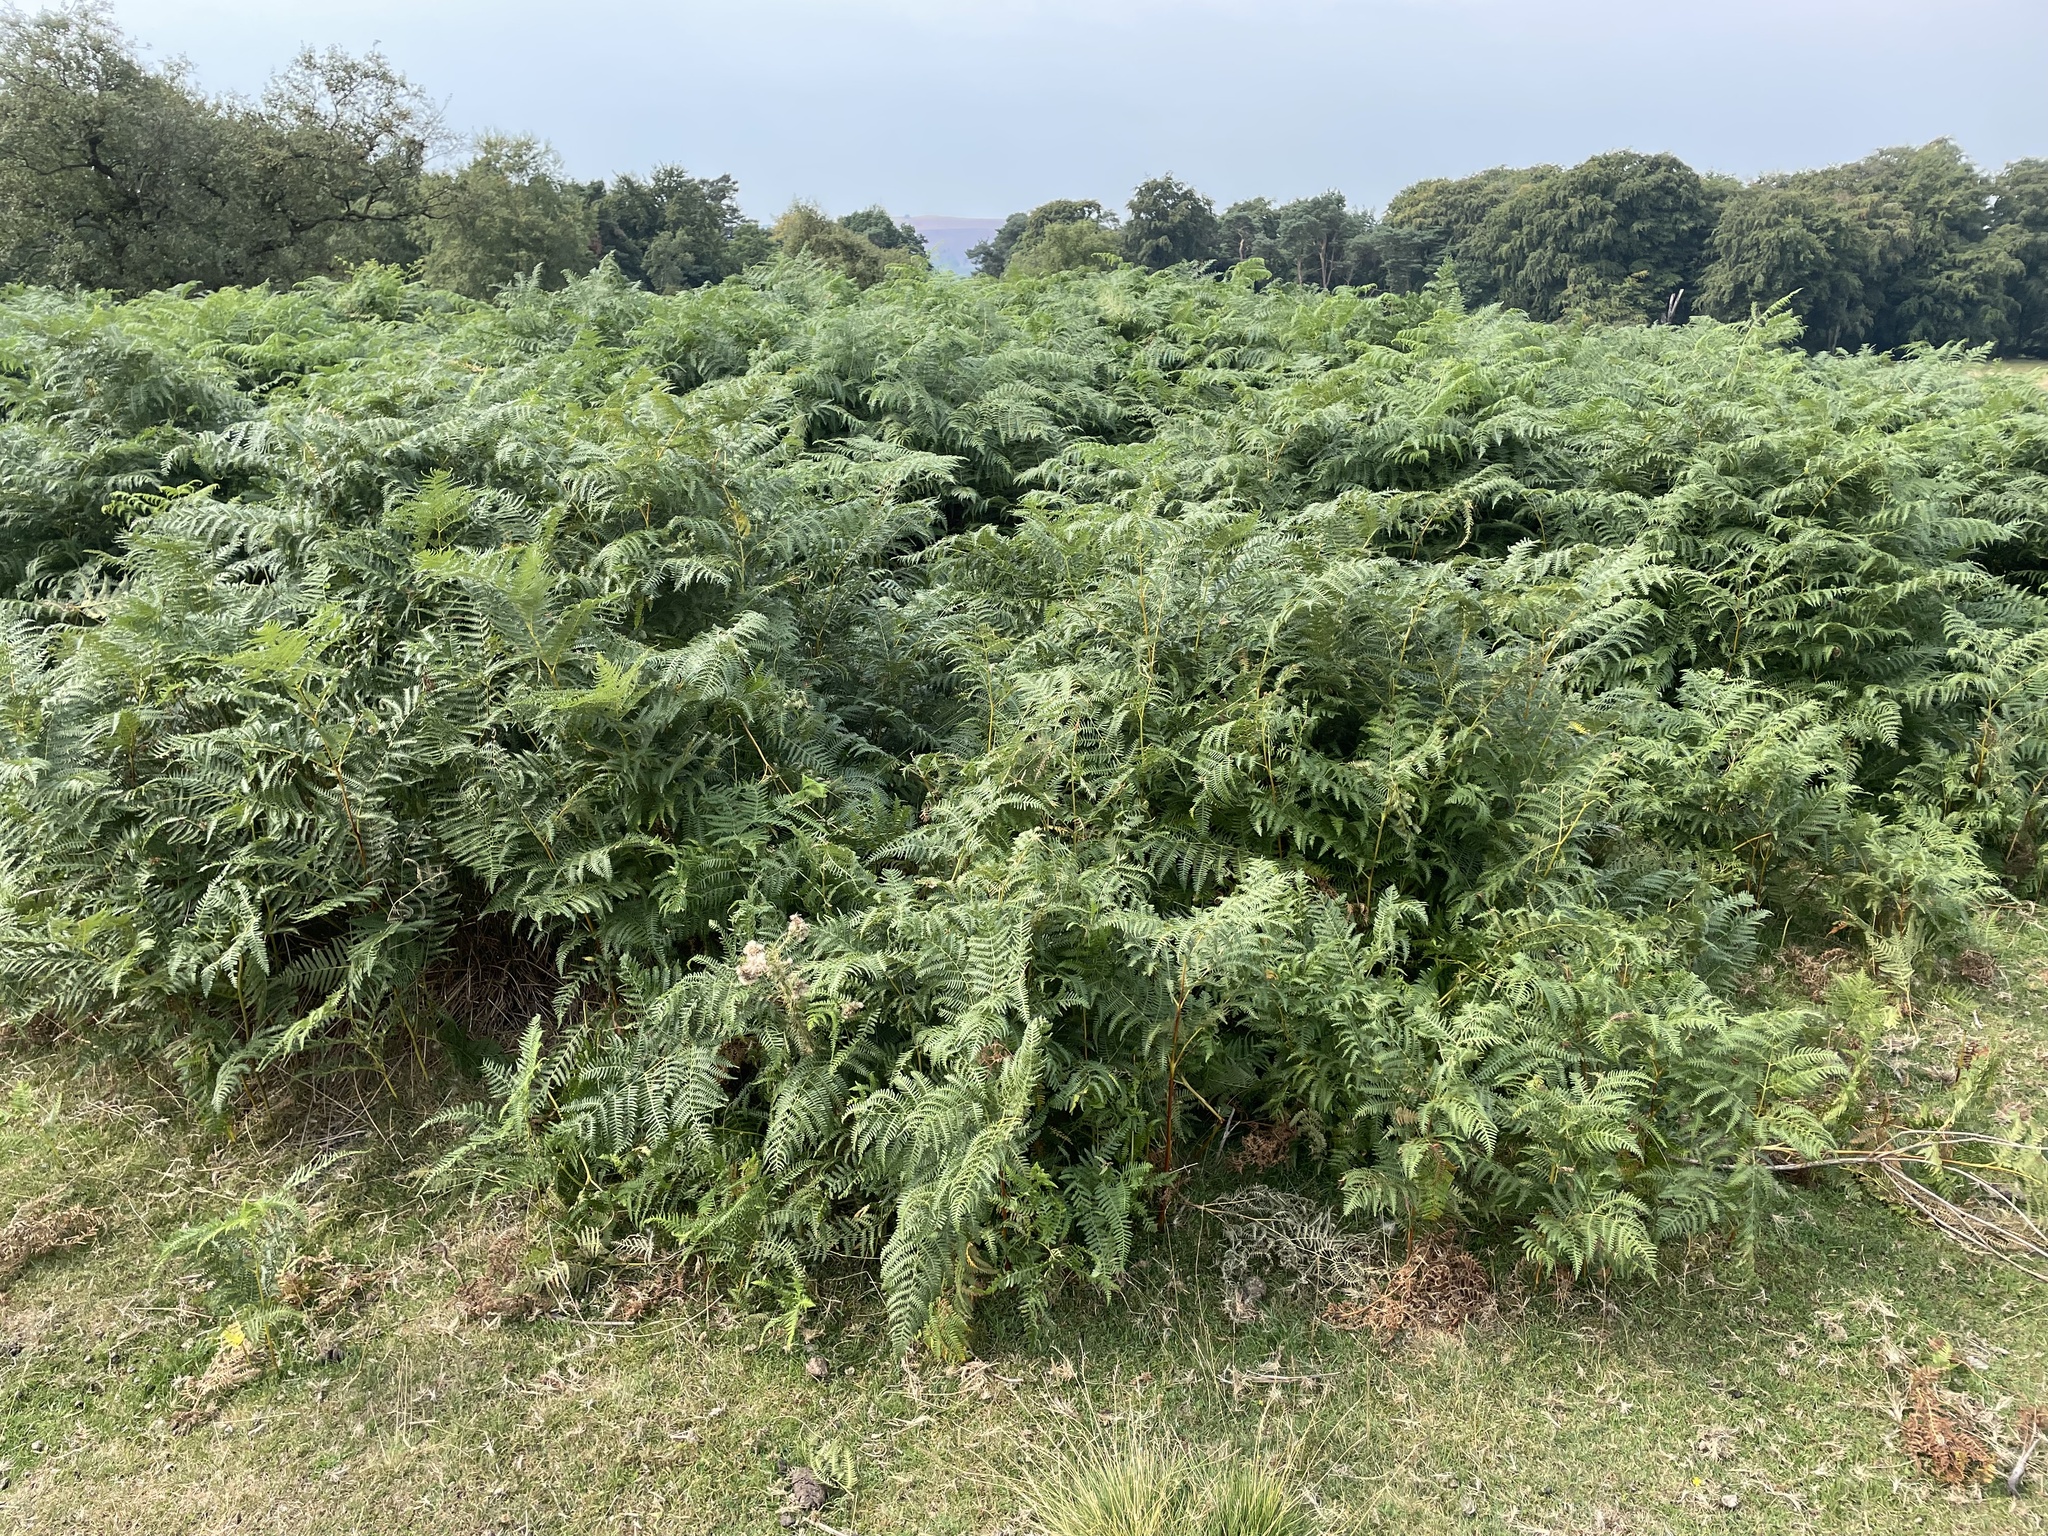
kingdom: Plantae
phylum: Tracheophyta
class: Polypodiopsida
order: Polypodiales
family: Dennstaedtiaceae
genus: Pteridium
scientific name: Pteridium aquilinum
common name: Bracken
